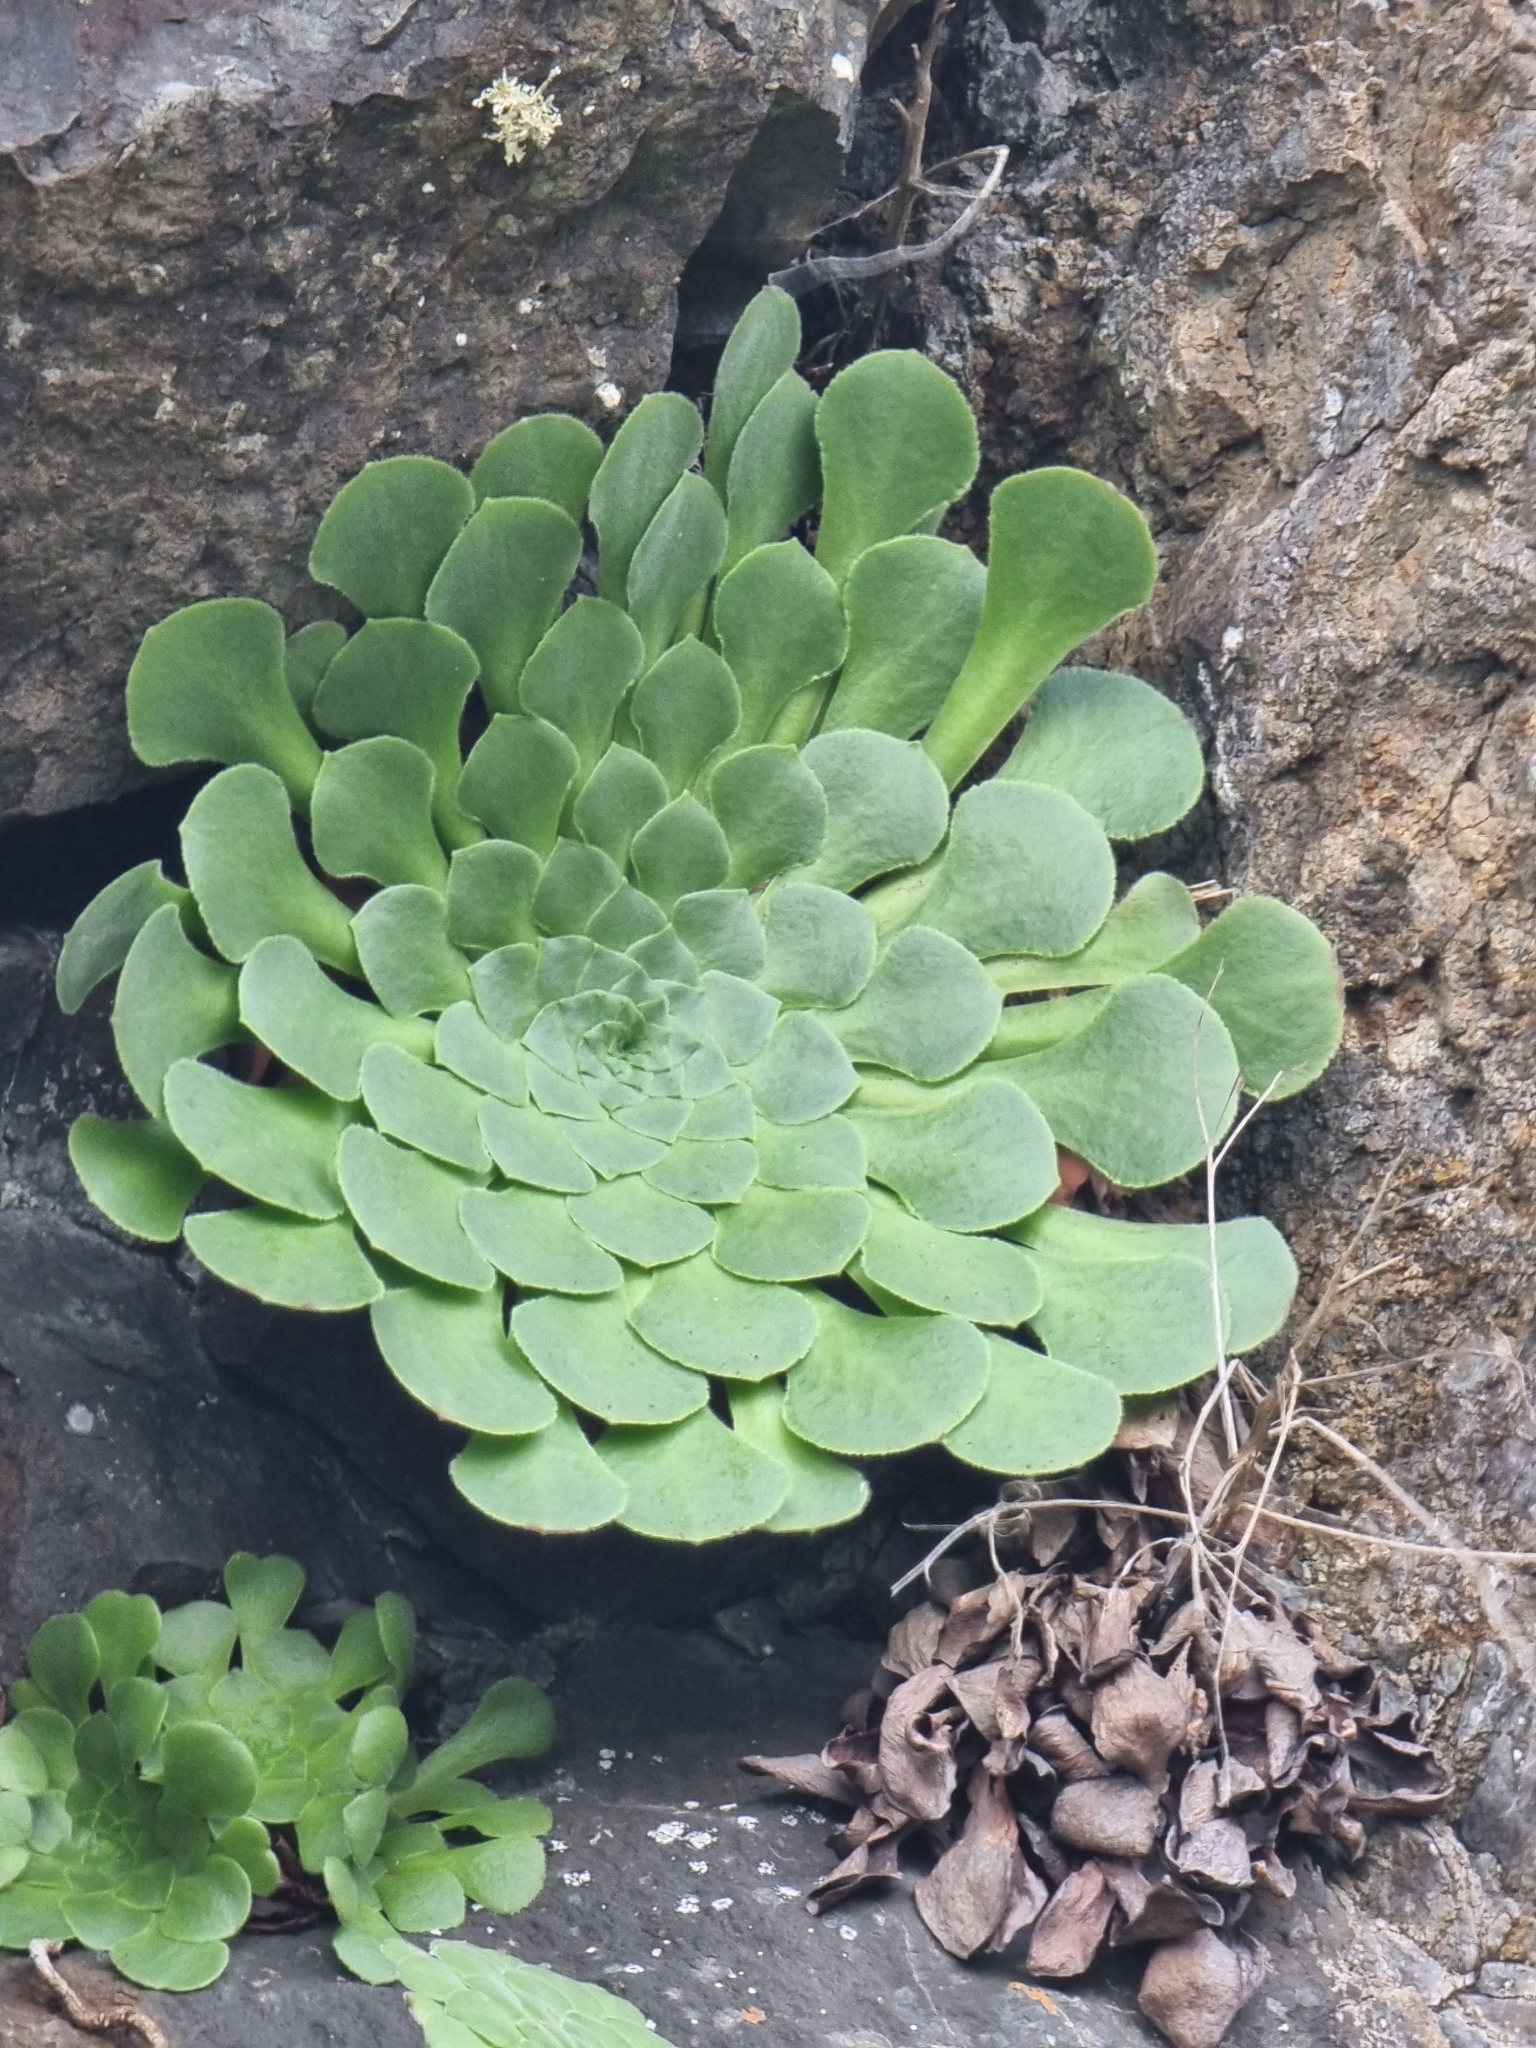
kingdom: Plantae
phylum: Tracheophyta
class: Magnoliopsida
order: Saxifragales
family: Crassulaceae
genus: Aeonium
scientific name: Aeonium glandulosum
